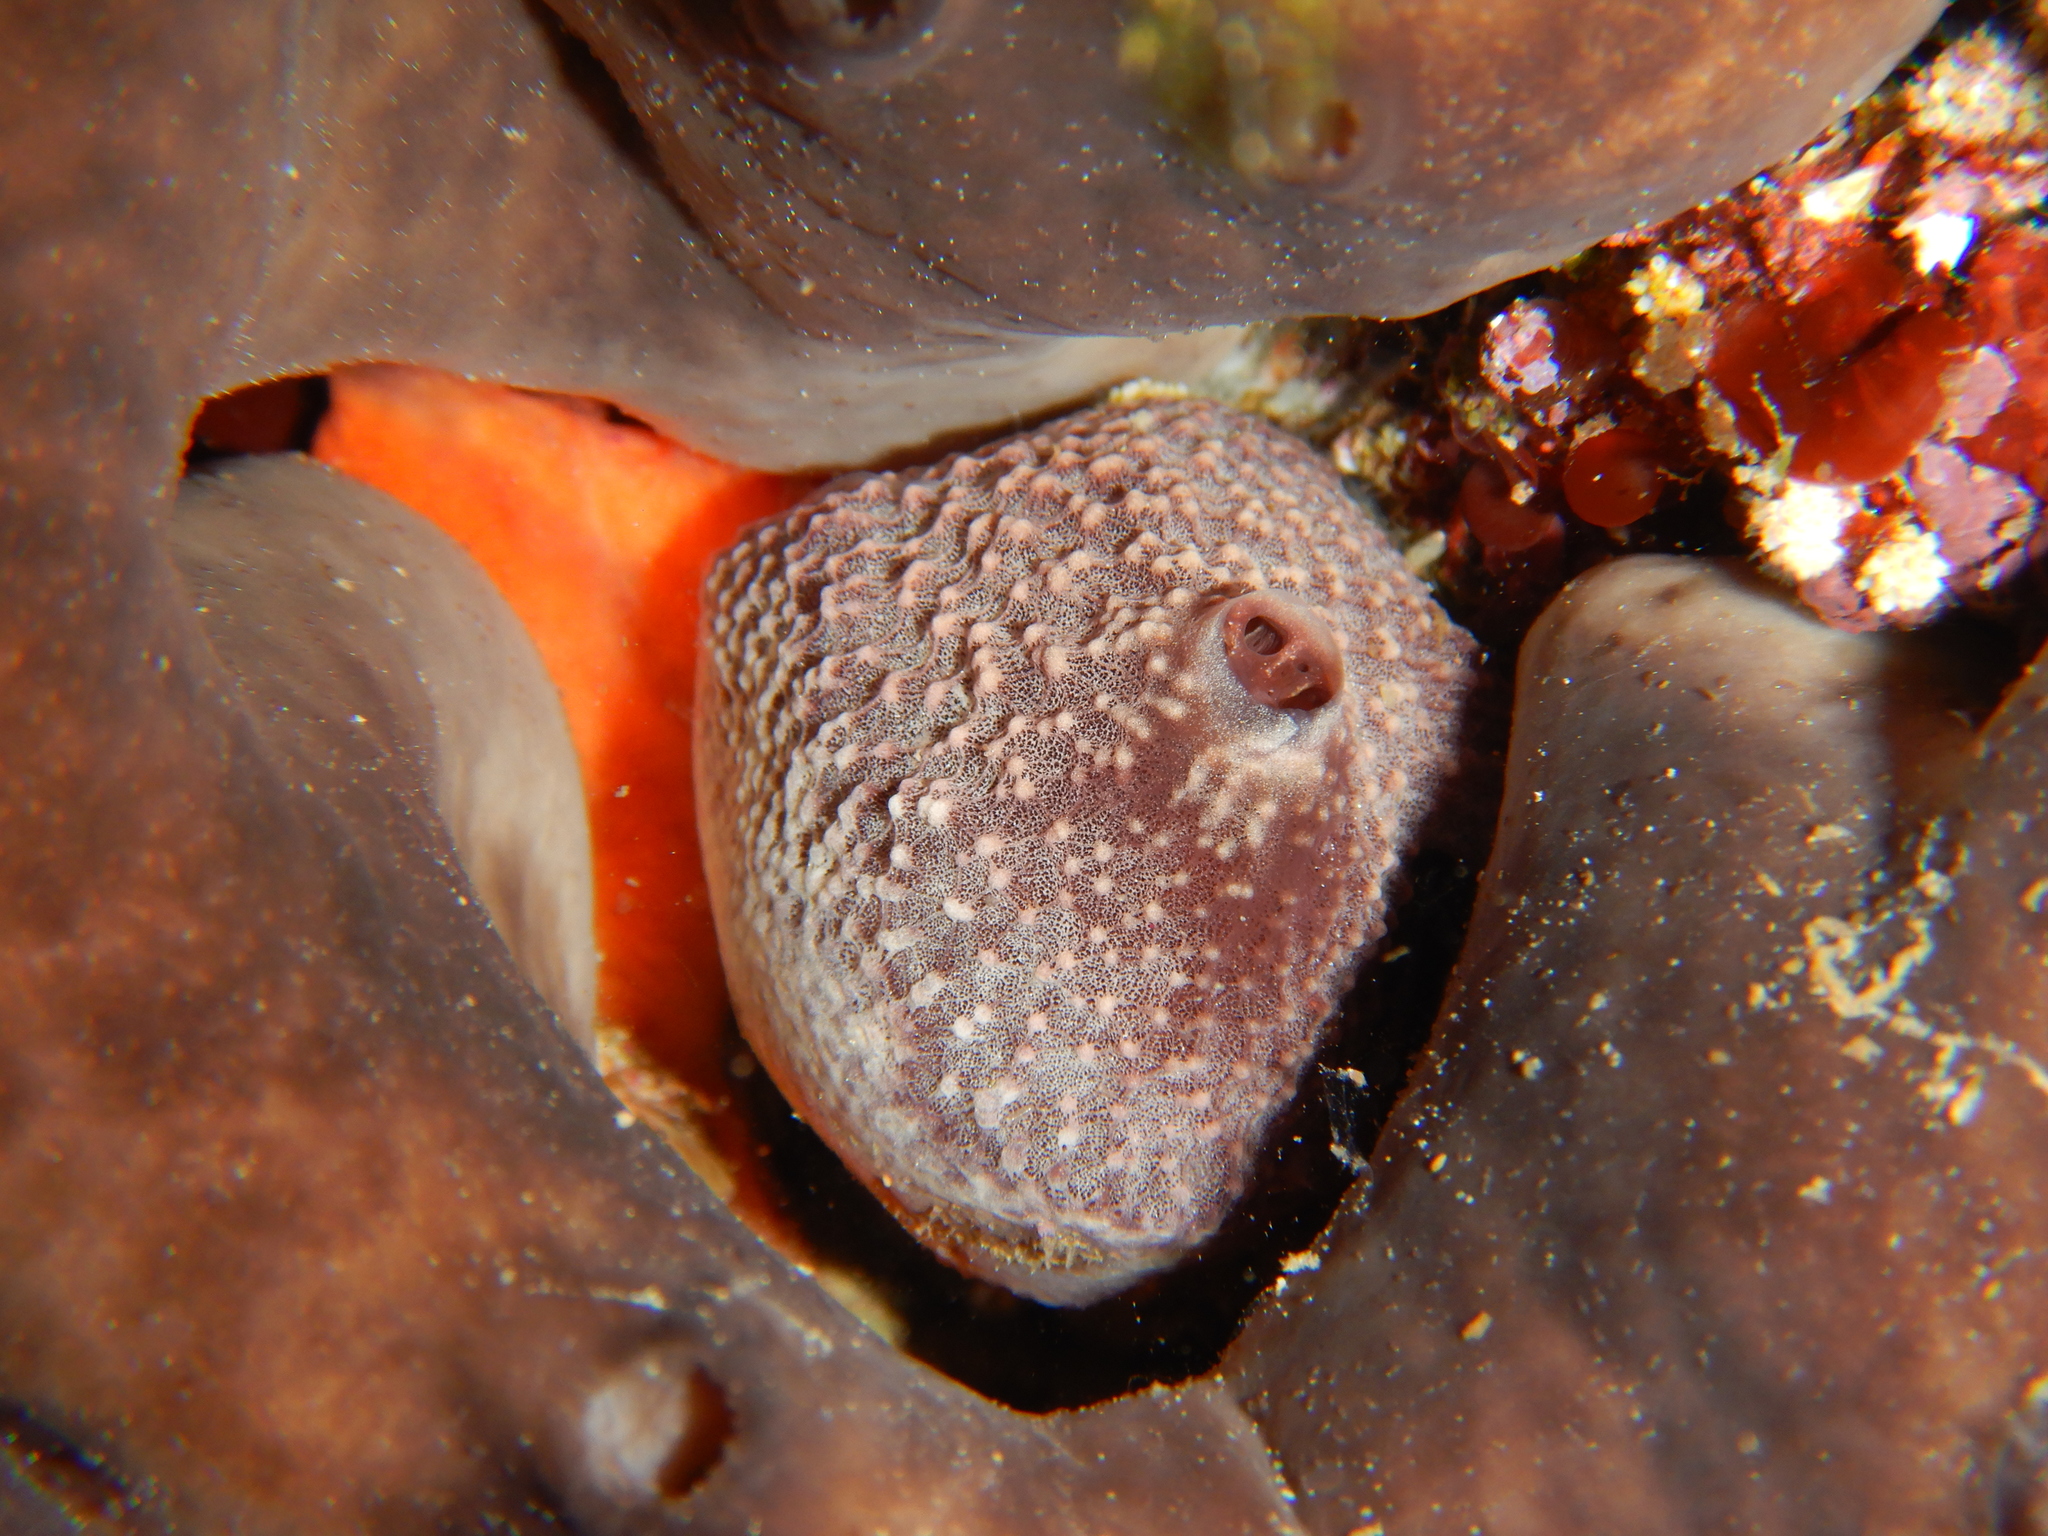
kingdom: Animalia
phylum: Porifera
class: Demospongiae
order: Dictyoceratida
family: Irciniidae
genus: Ircinia
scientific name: Ircinia variabilis
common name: Variable loggerhead sponge
